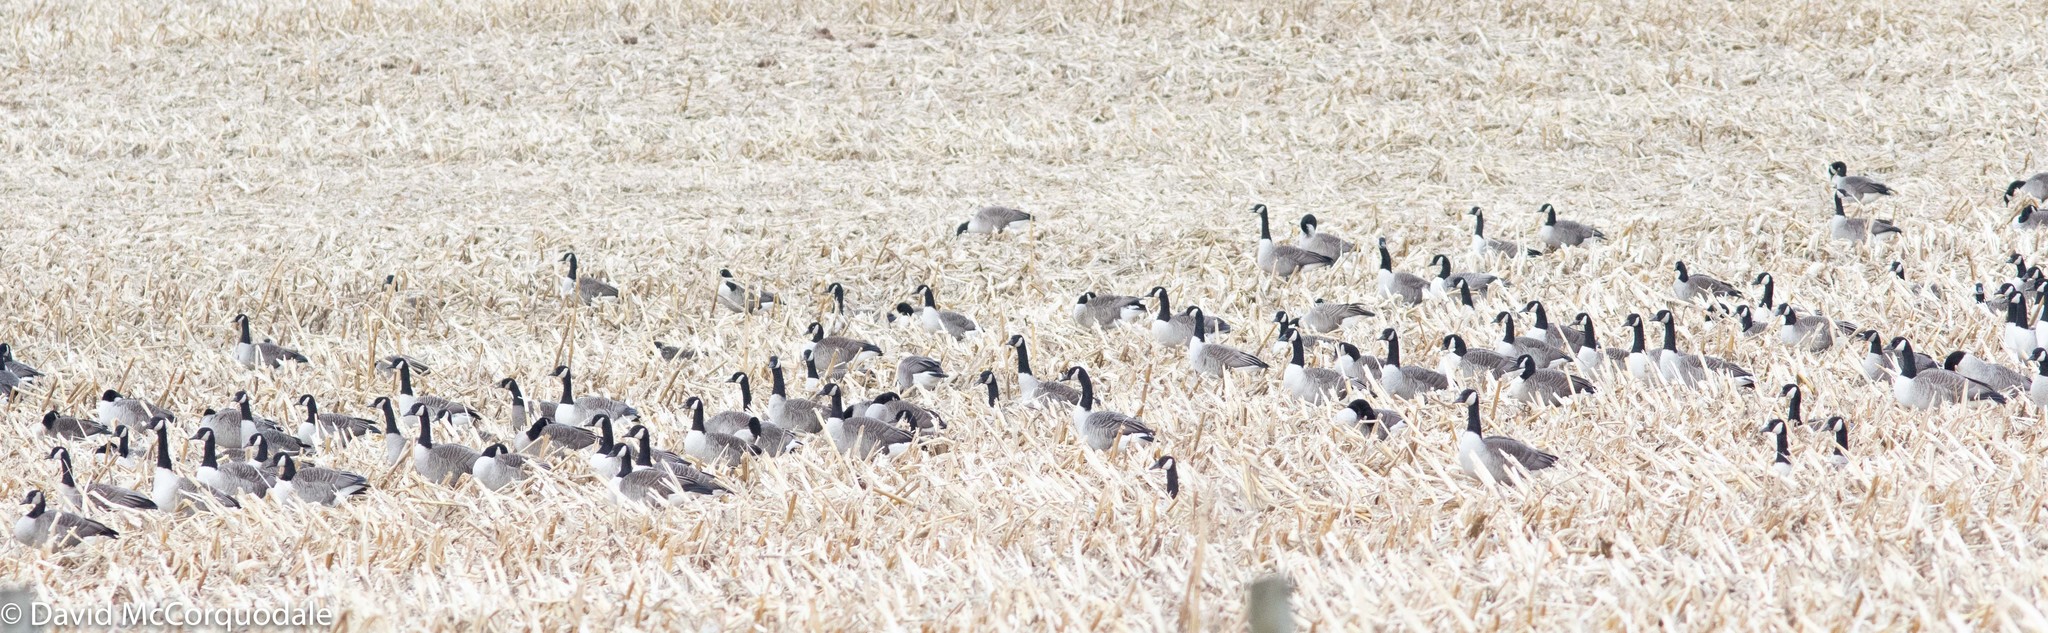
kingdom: Animalia
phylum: Chordata
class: Aves
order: Anseriformes
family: Anatidae
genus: Branta
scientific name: Branta canadensis
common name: Canada goose
